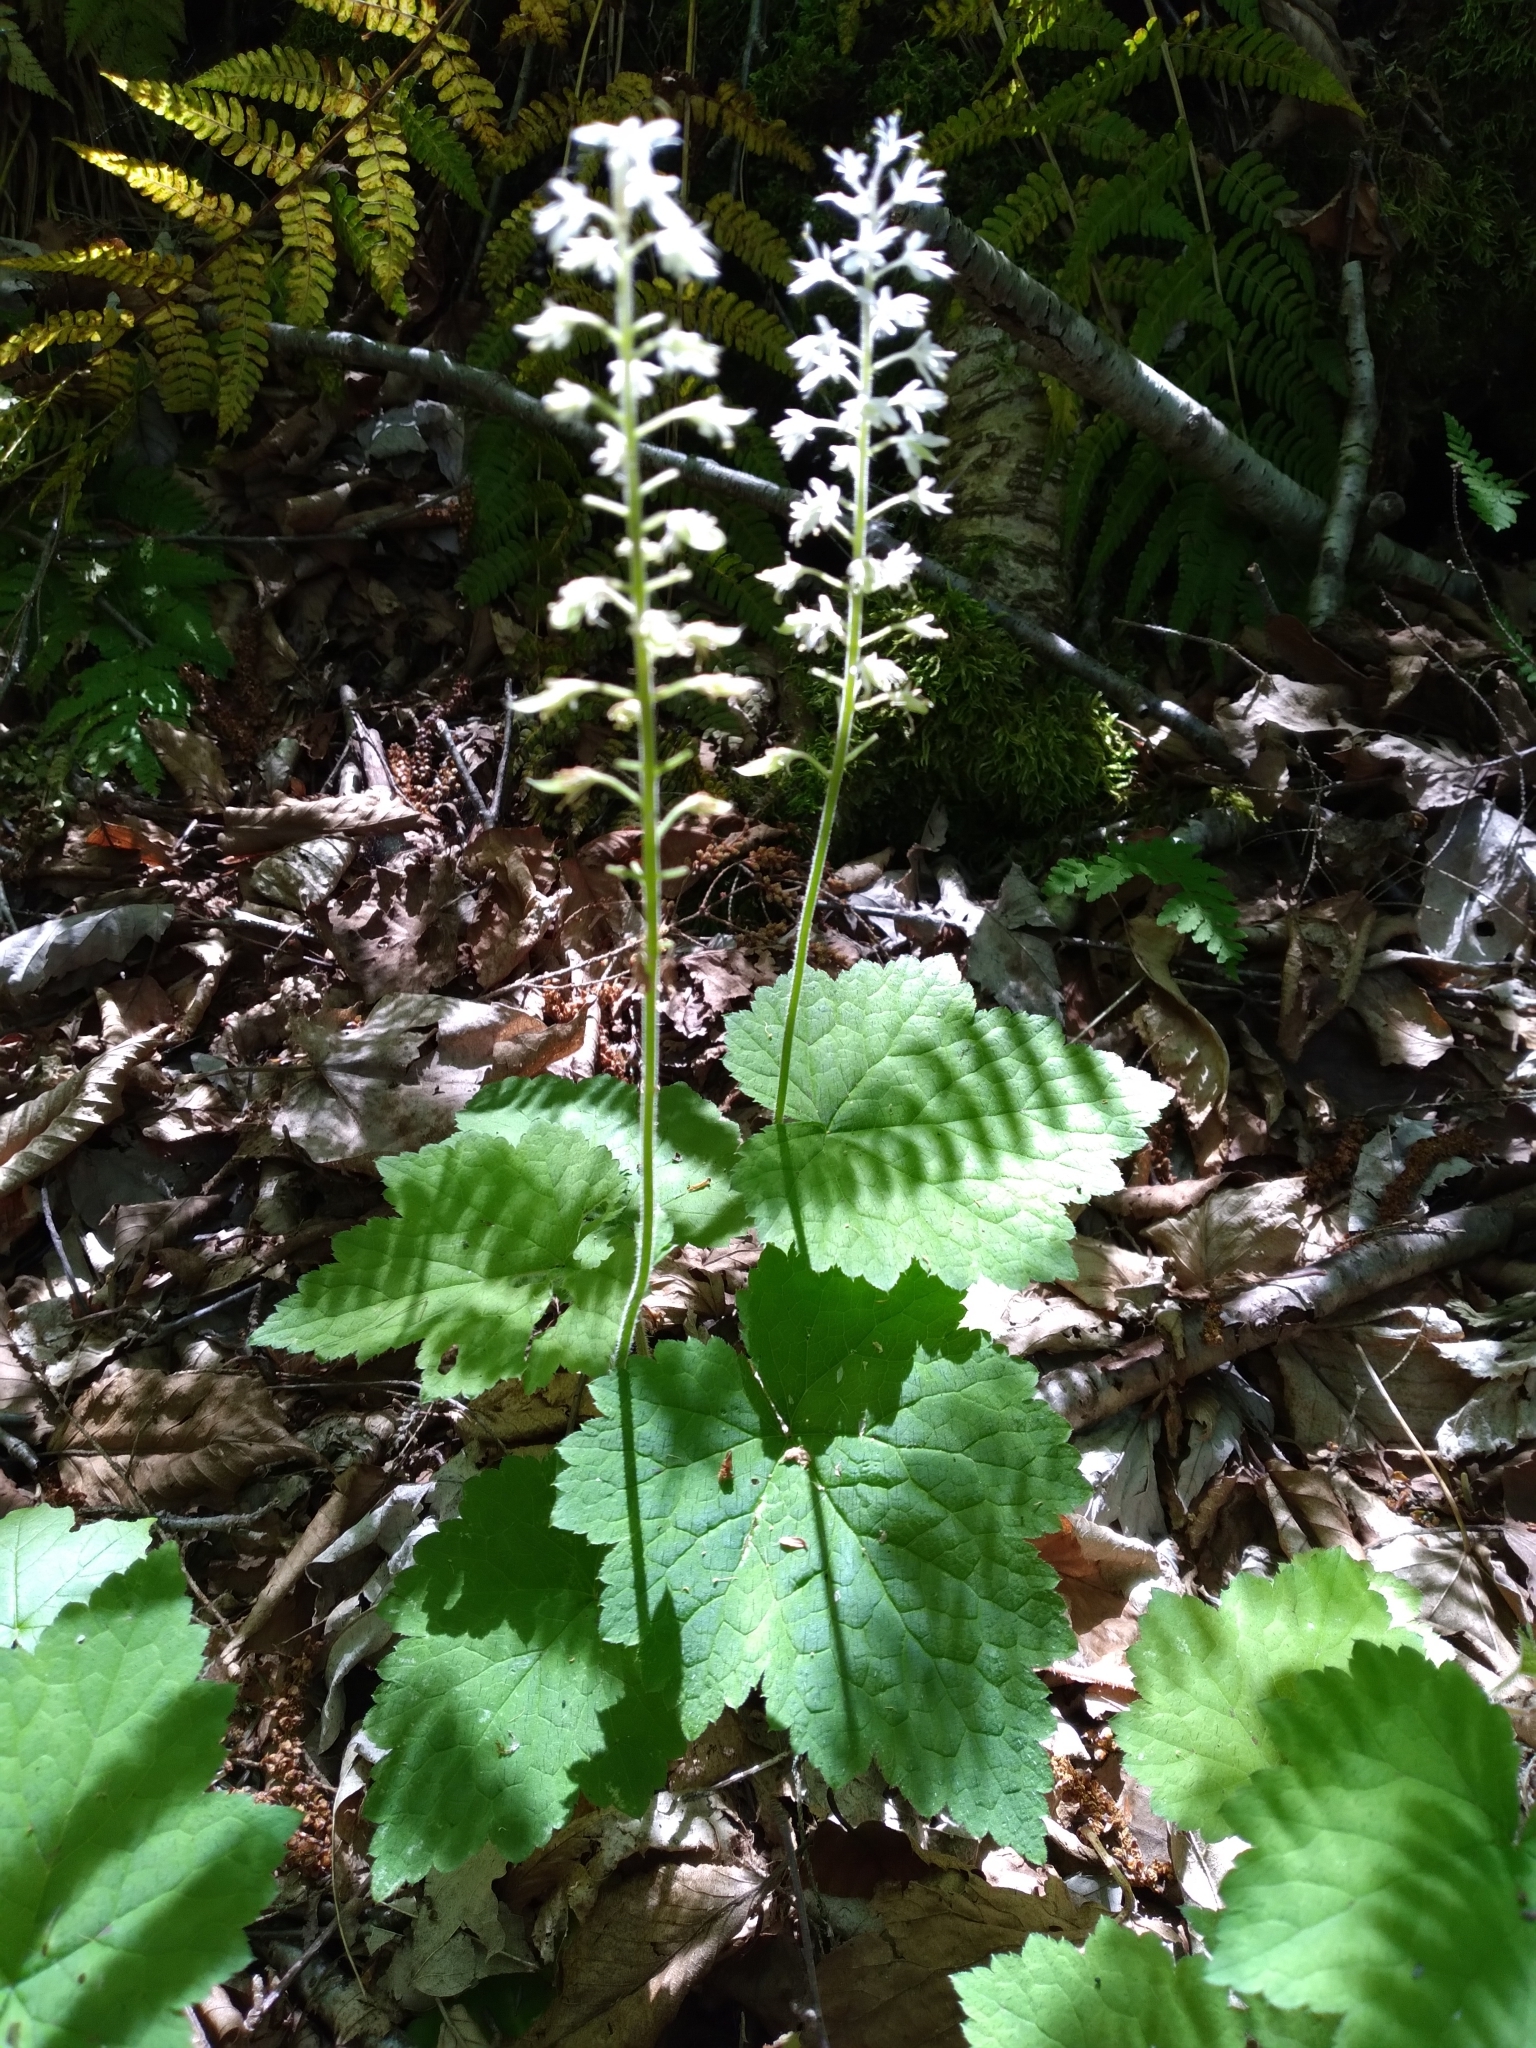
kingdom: Plantae
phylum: Tracheophyta
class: Magnoliopsida
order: Saxifragales
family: Saxifragaceae
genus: Tiarella
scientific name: Tiarella stolonifera
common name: Stoloniferous foamflower
